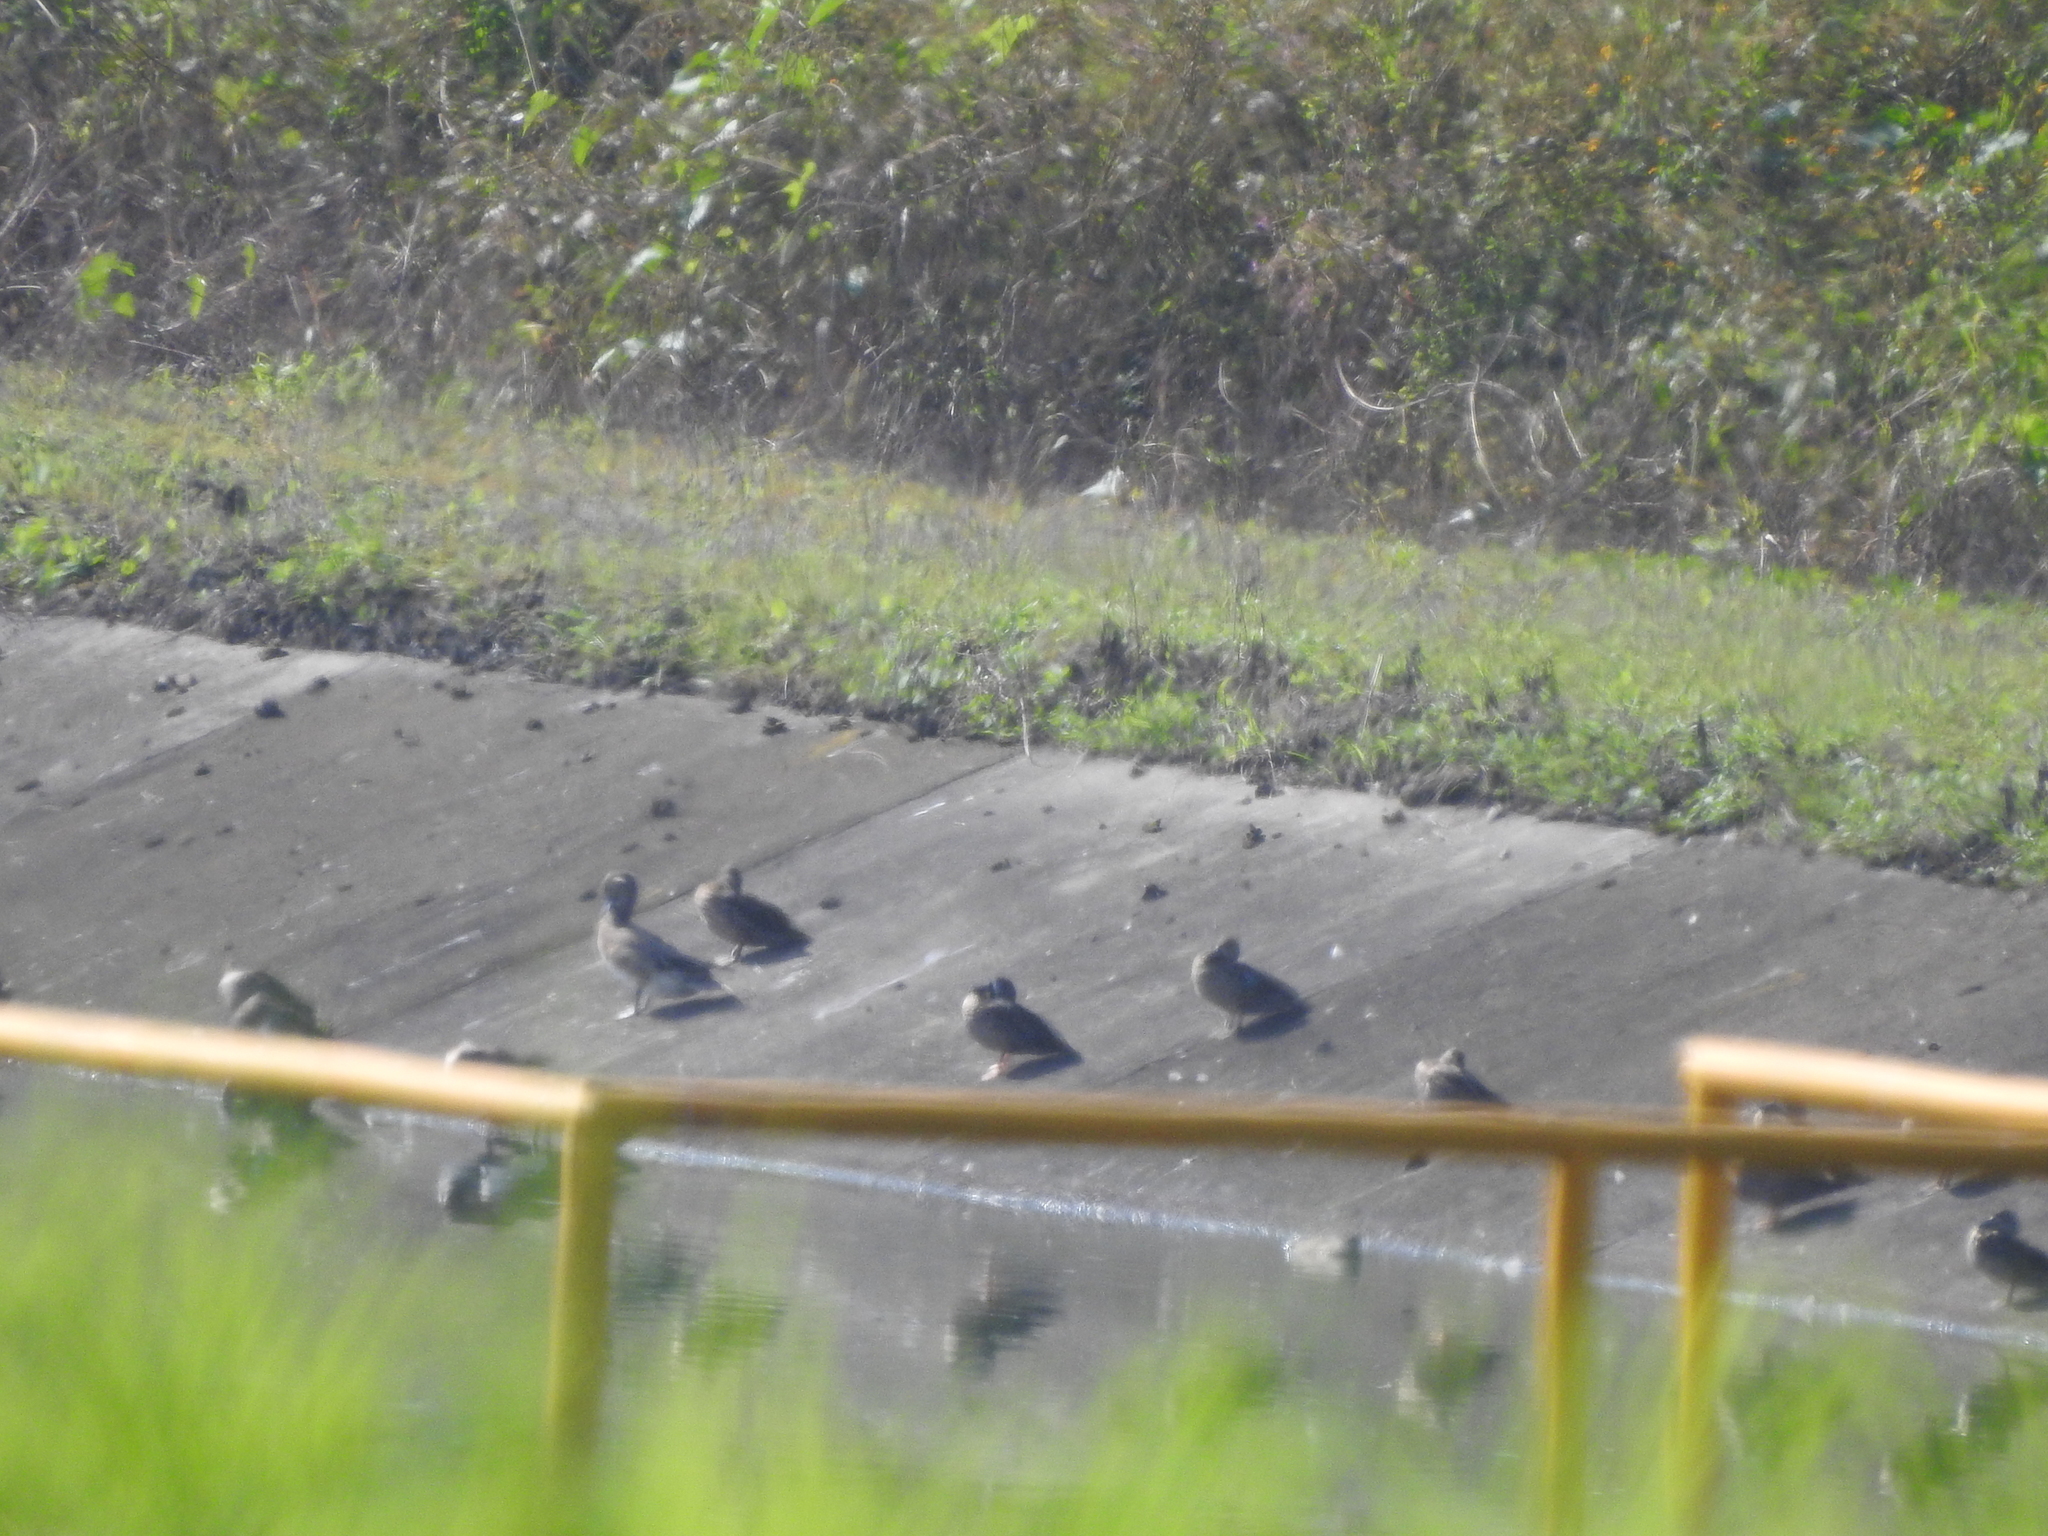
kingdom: Animalia
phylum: Chordata
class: Aves
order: Anseriformes
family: Anatidae
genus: Spatula
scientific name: Spatula discors
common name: Blue-winged teal
